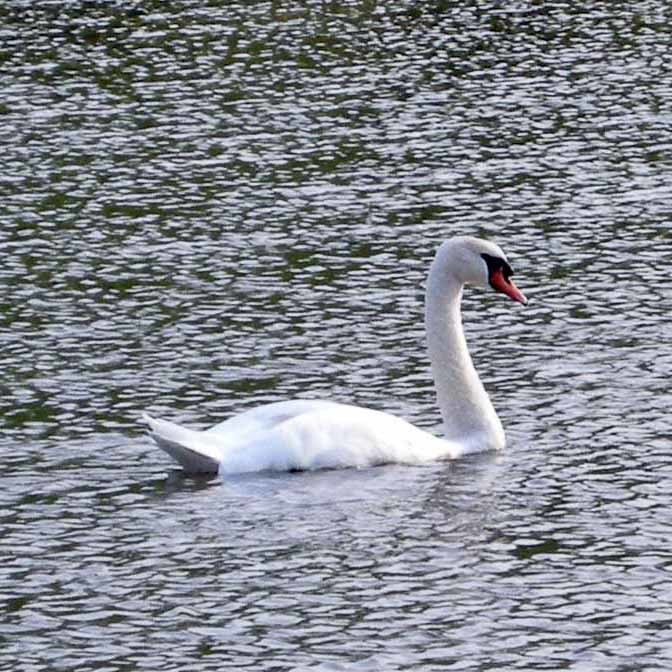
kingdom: Animalia
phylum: Chordata
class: Aves
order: Anseriformes
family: Anatidae
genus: Cygnus
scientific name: Cygnus olor
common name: Mute swan
